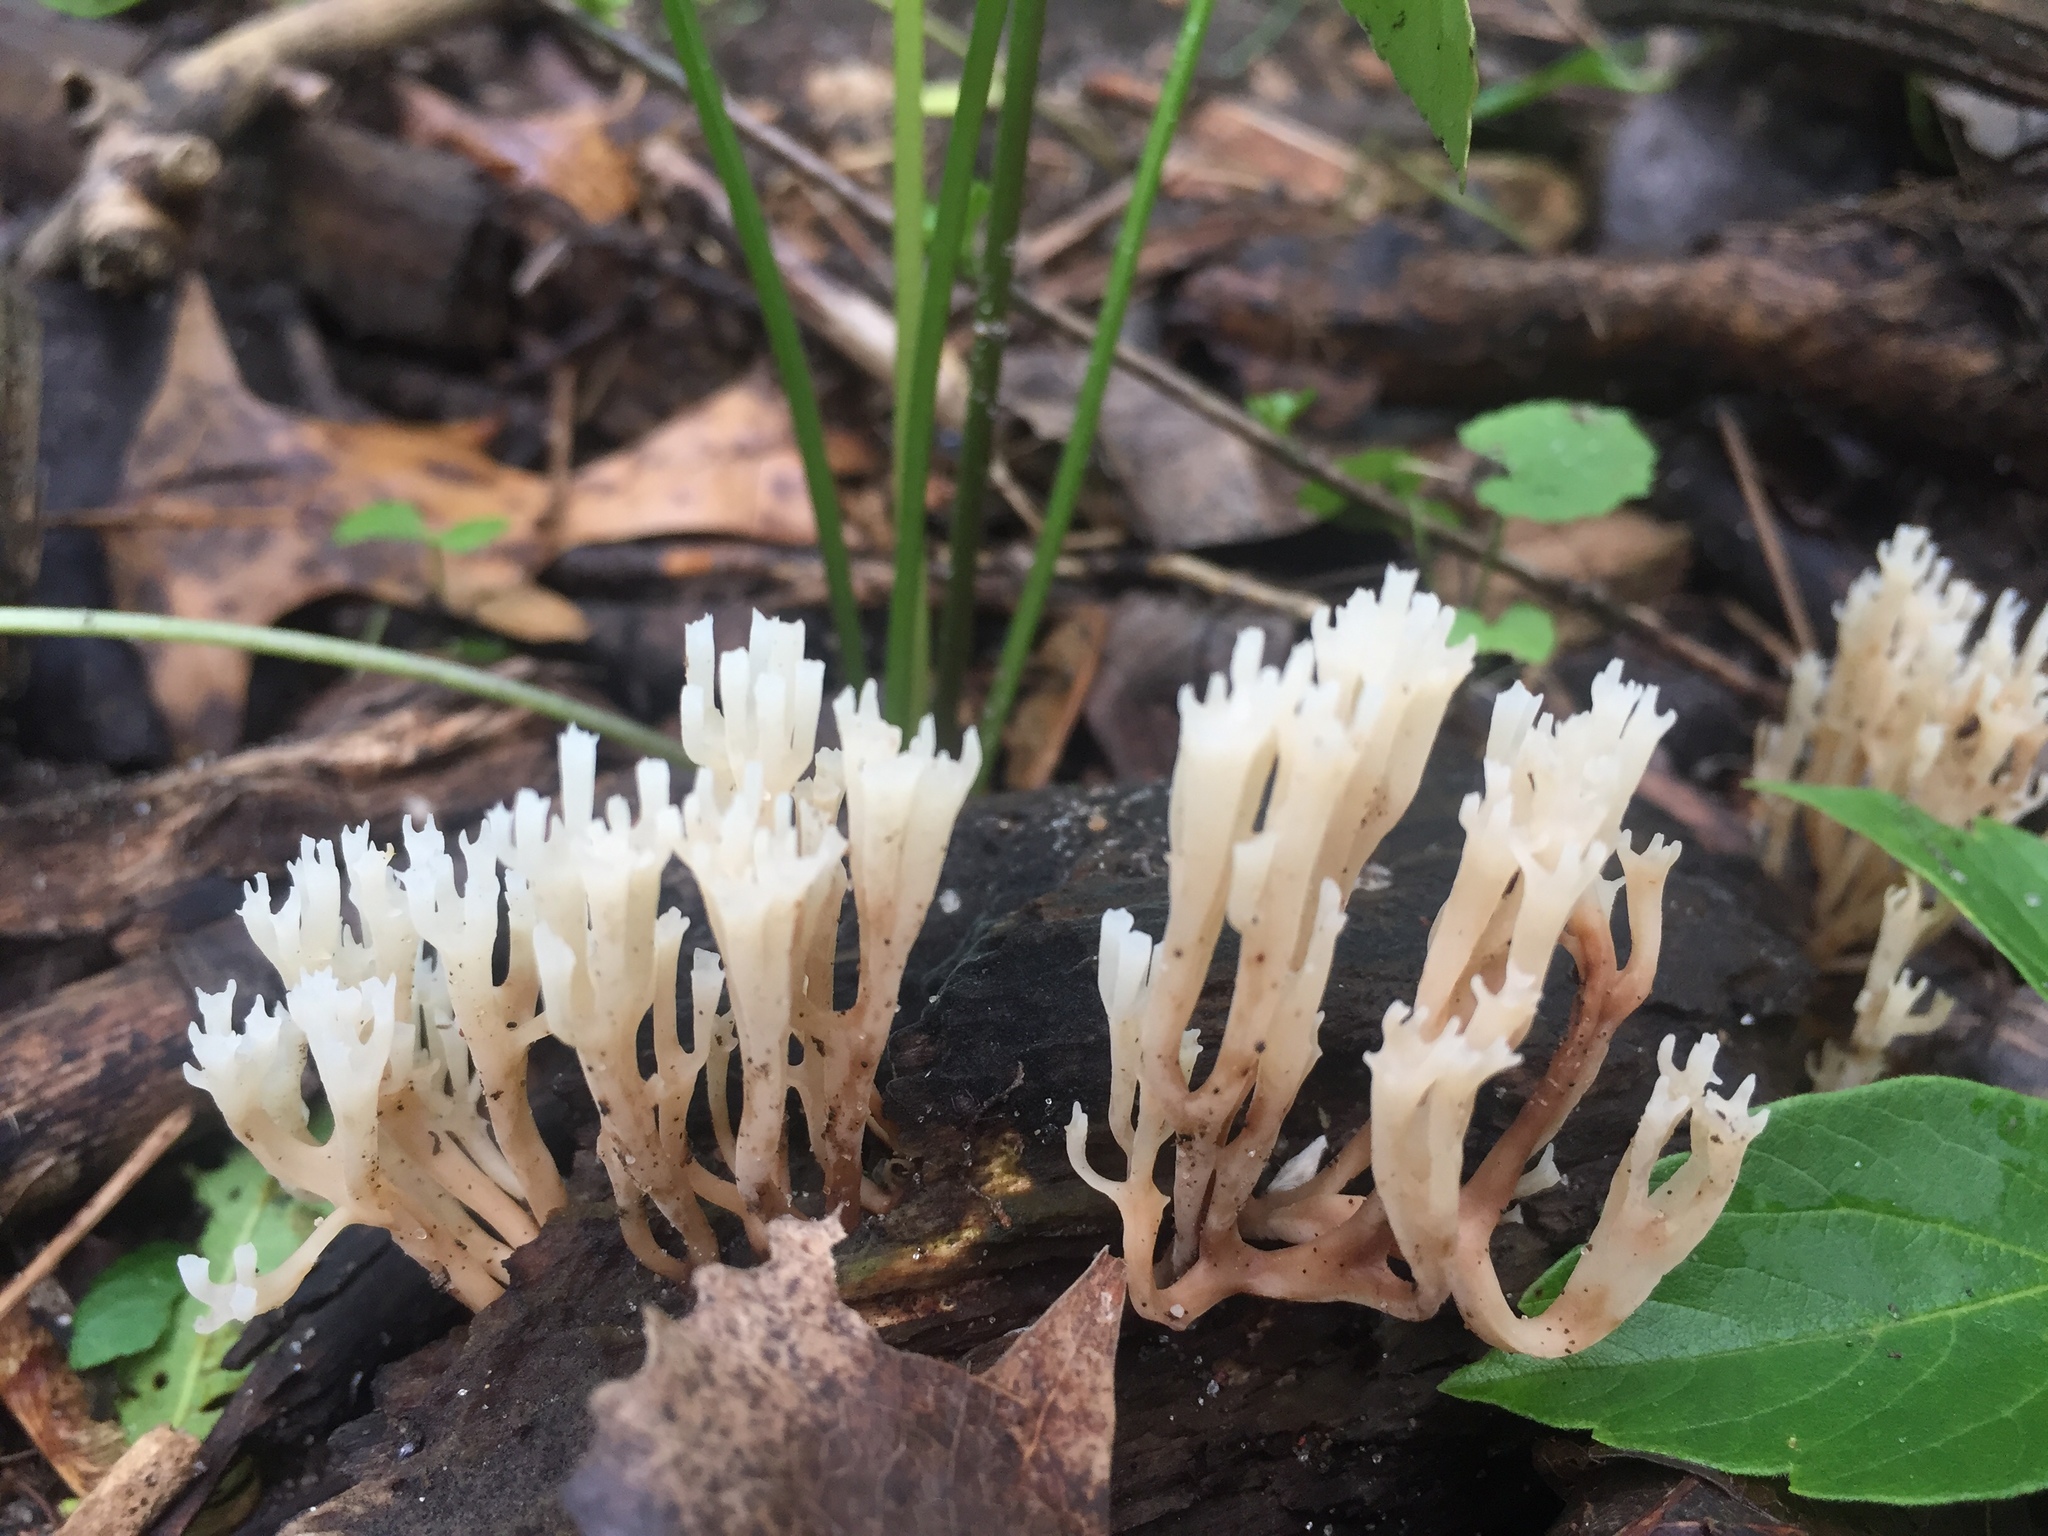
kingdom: Fungi
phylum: Basidiomycota
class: Agaricomycetes
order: Russulales
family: Auriscalpiaceae
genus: Artomyces
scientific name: Artomyces pyxidatus
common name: Crown-tipped coral fungus
